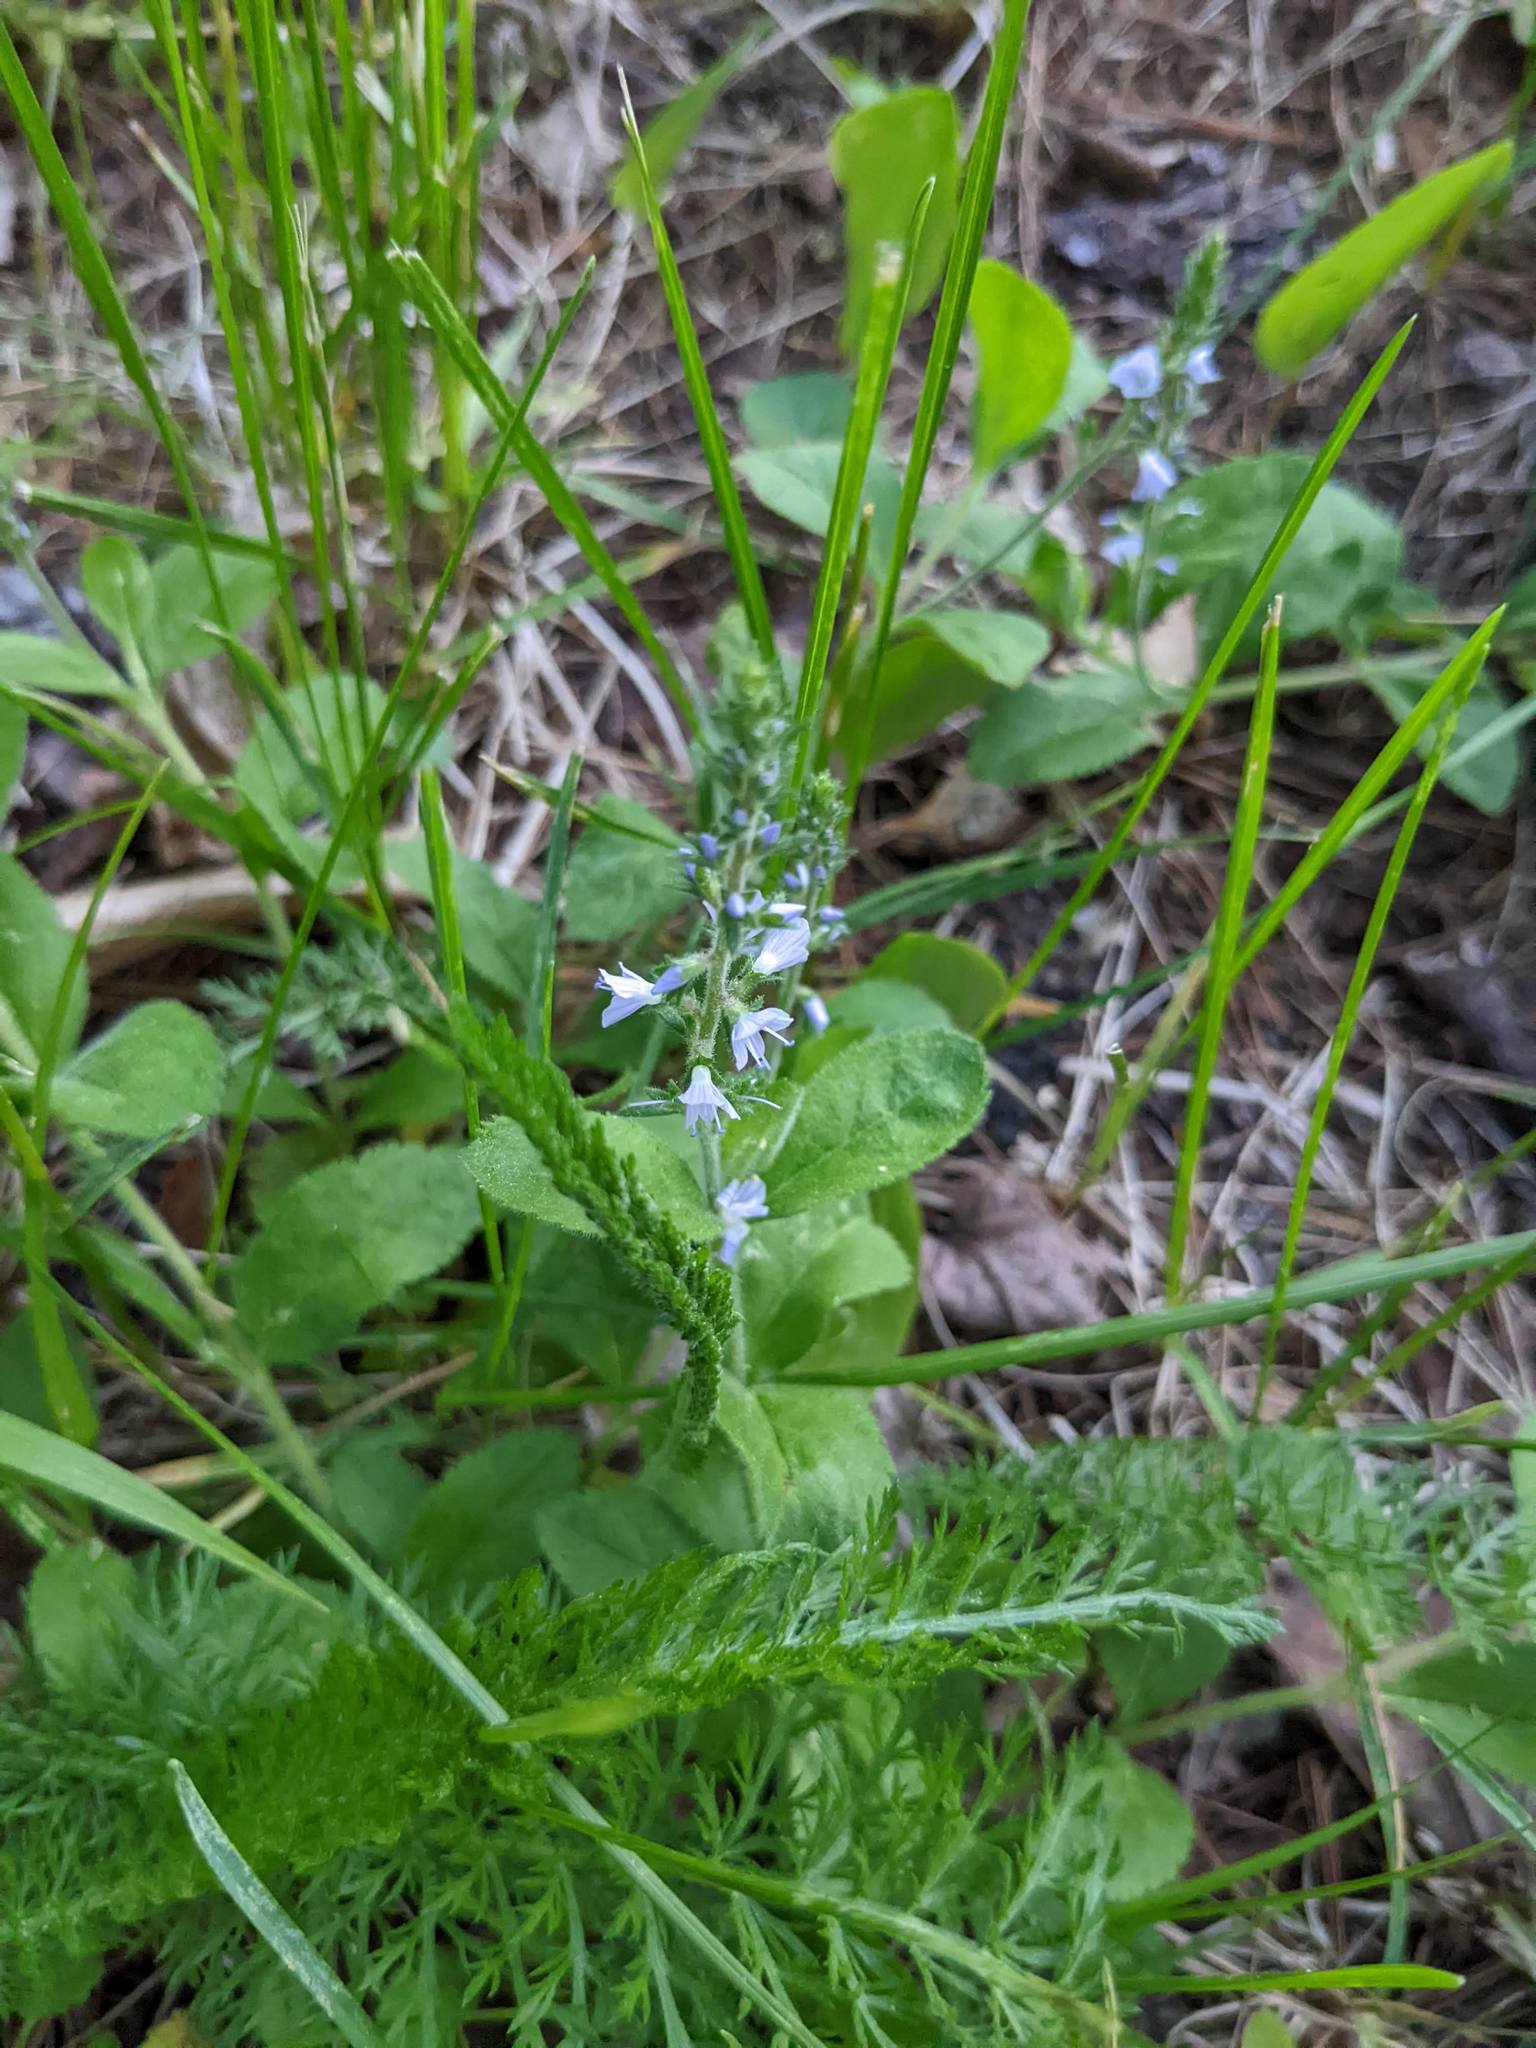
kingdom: Plantae
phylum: Tracheophyta
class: Magnoliopsida
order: Lamiales
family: Plantaginaceae
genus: Veronica
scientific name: Veronica officinalis
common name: Common speedwell
